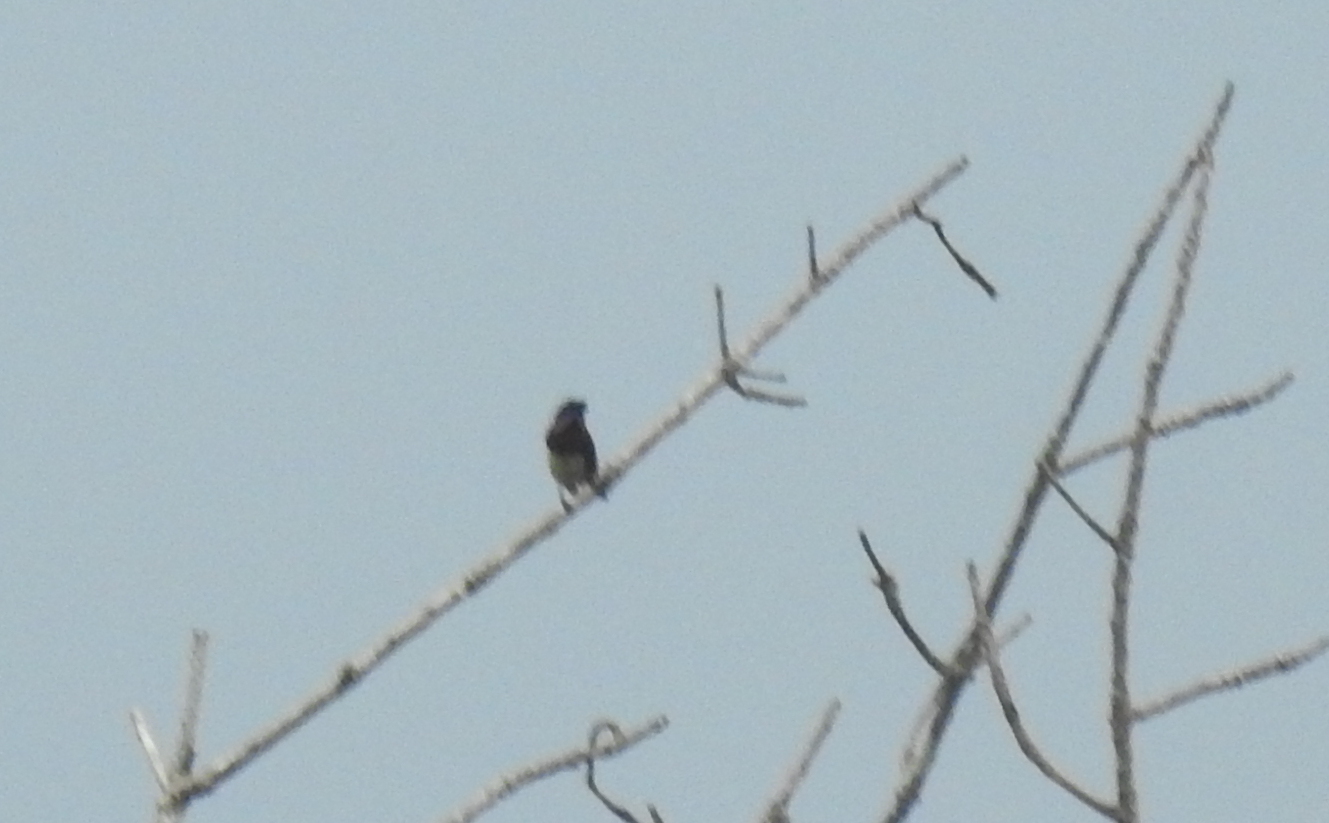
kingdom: Animalia
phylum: Chordata
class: Aves
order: Passeriformes
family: Estrildidae
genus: Lonchura
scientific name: Lonchura striata
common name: White-rumped munia
